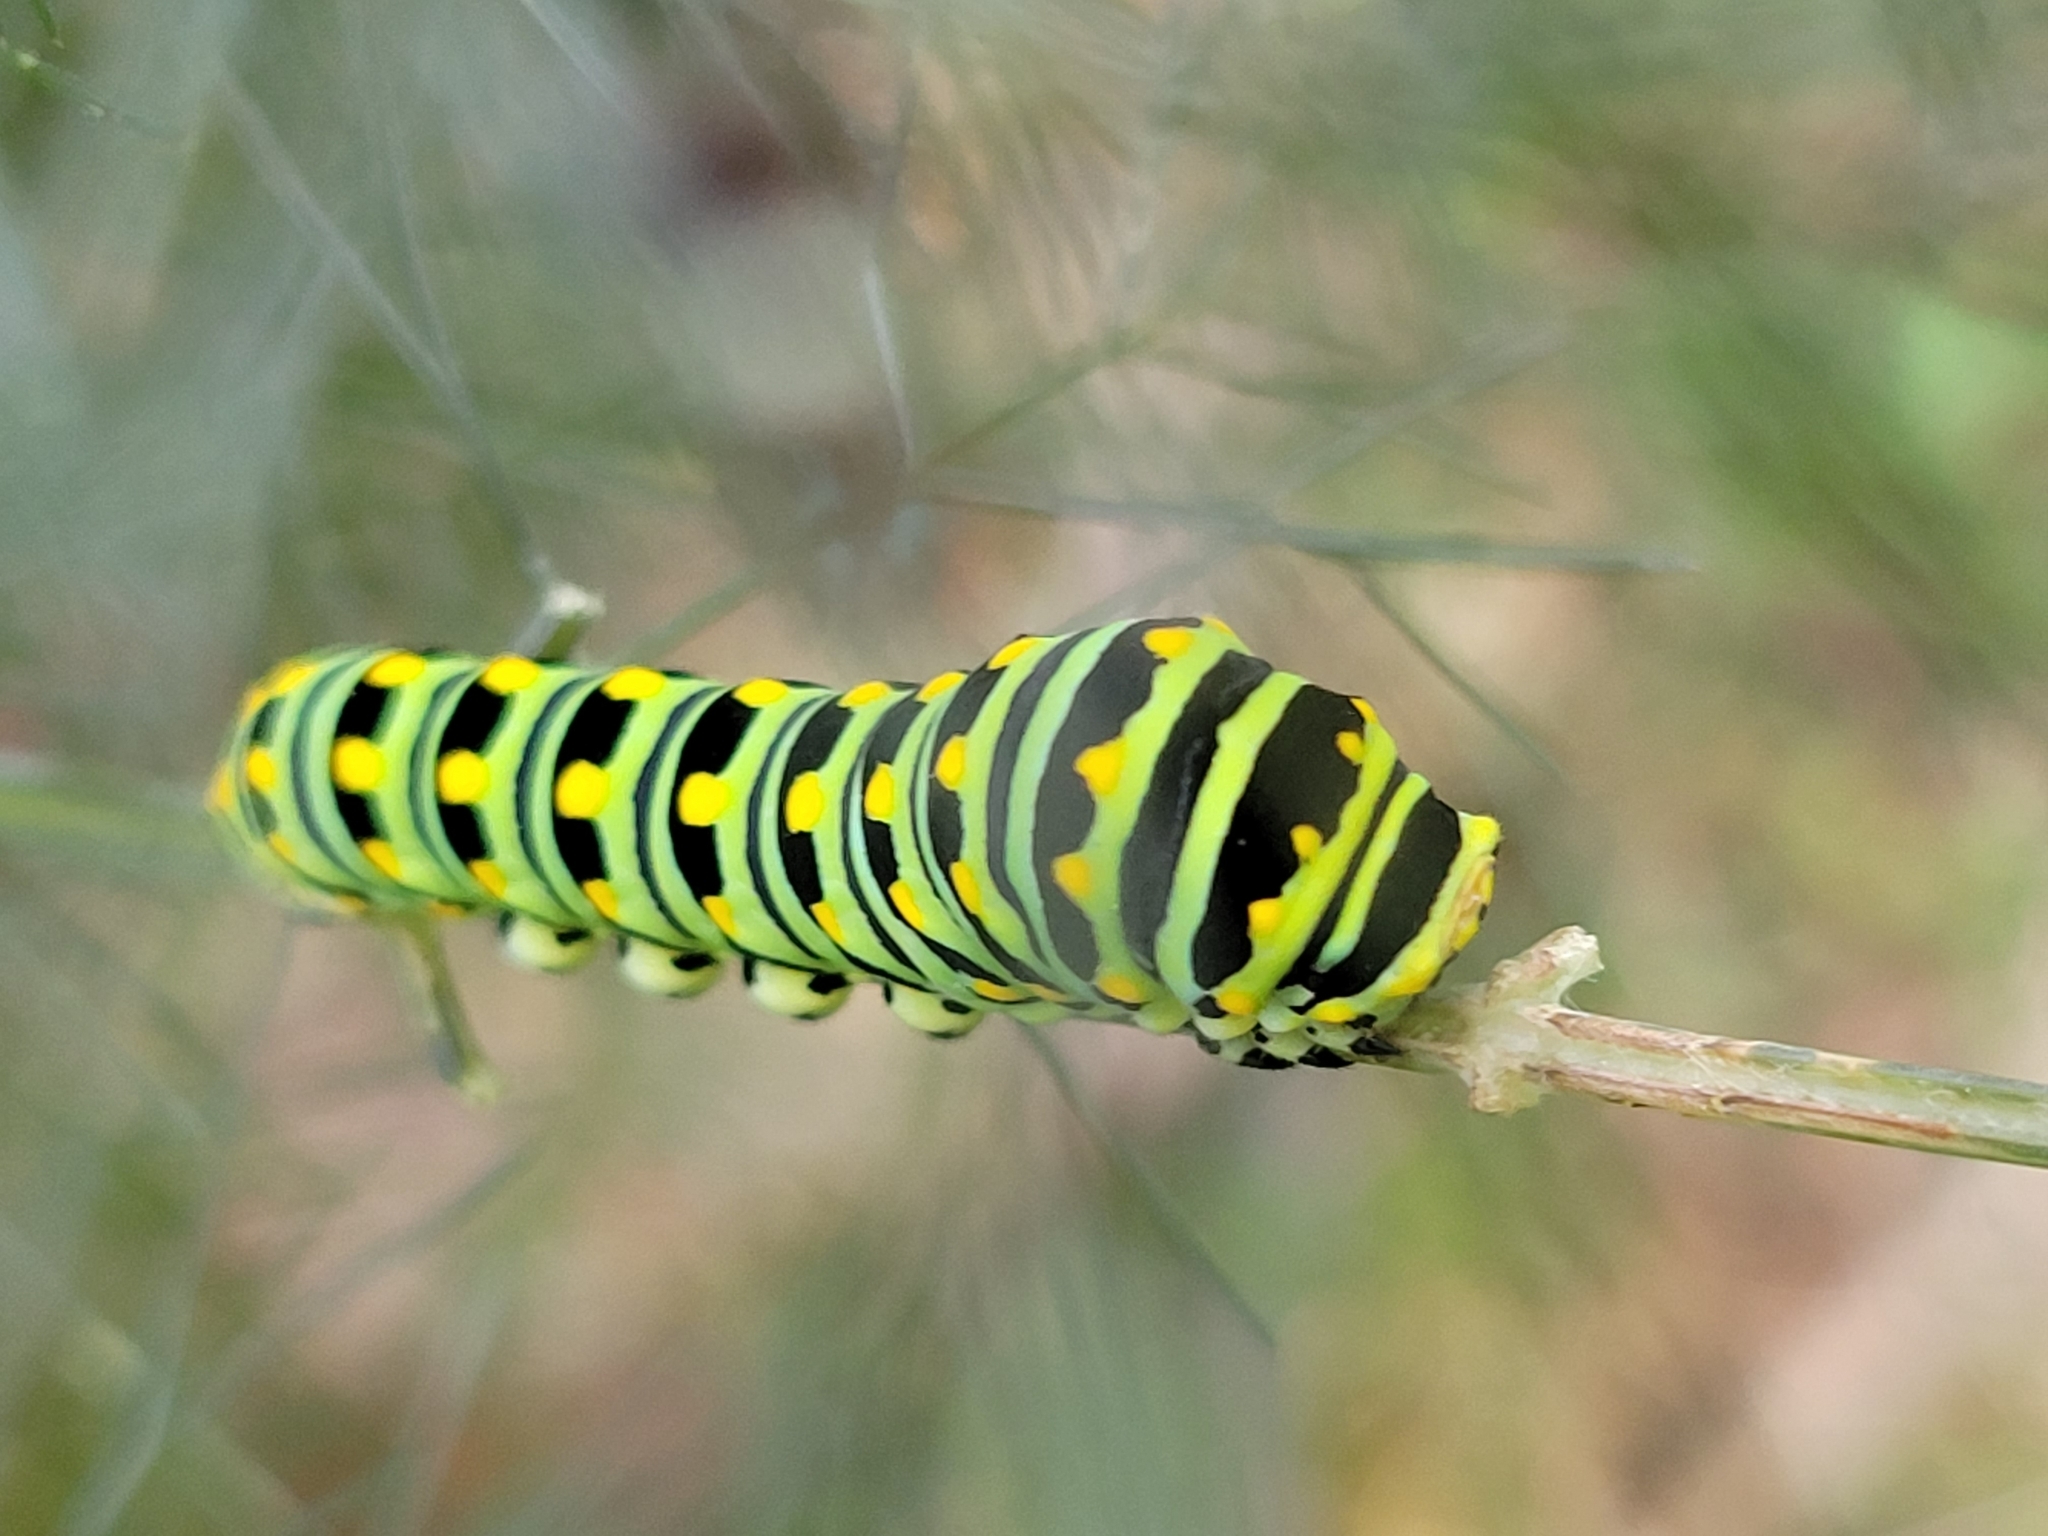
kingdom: Animalia
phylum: Arthropoda
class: Insecta
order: Lepidoptera
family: Papilionidae
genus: Papilio
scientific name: Papilio polyxenes
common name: Black swallowtail
